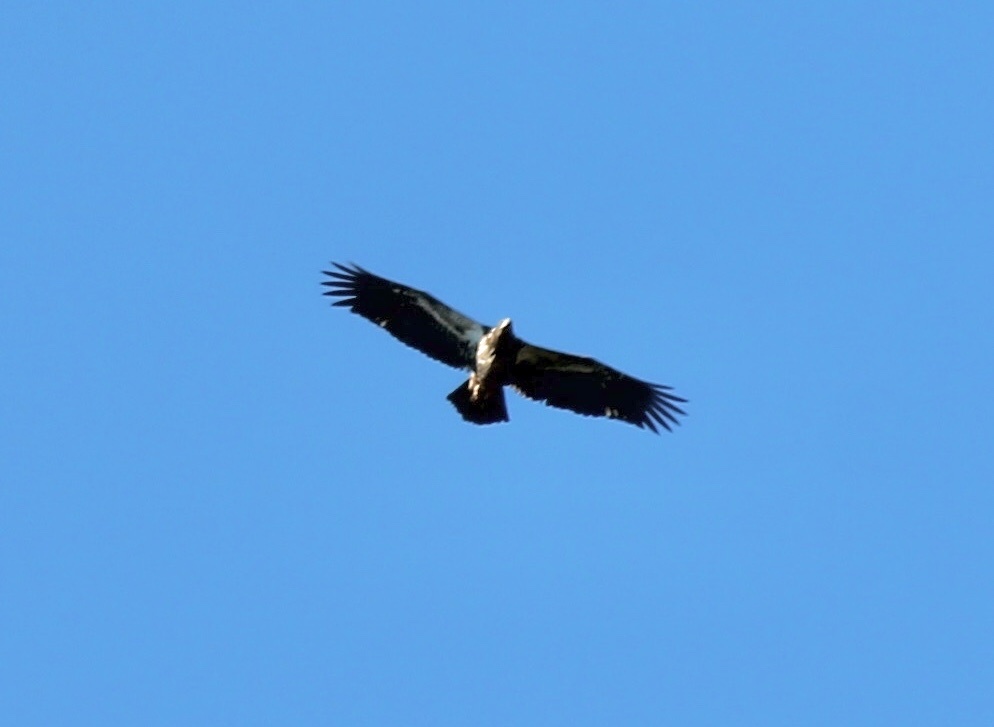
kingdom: Animalia
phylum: Chordata
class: Aves
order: Accipitriformes
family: Accipitridae
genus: Haliaeetus
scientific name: Haliaeetus leucocephalus
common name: Bald eagle
